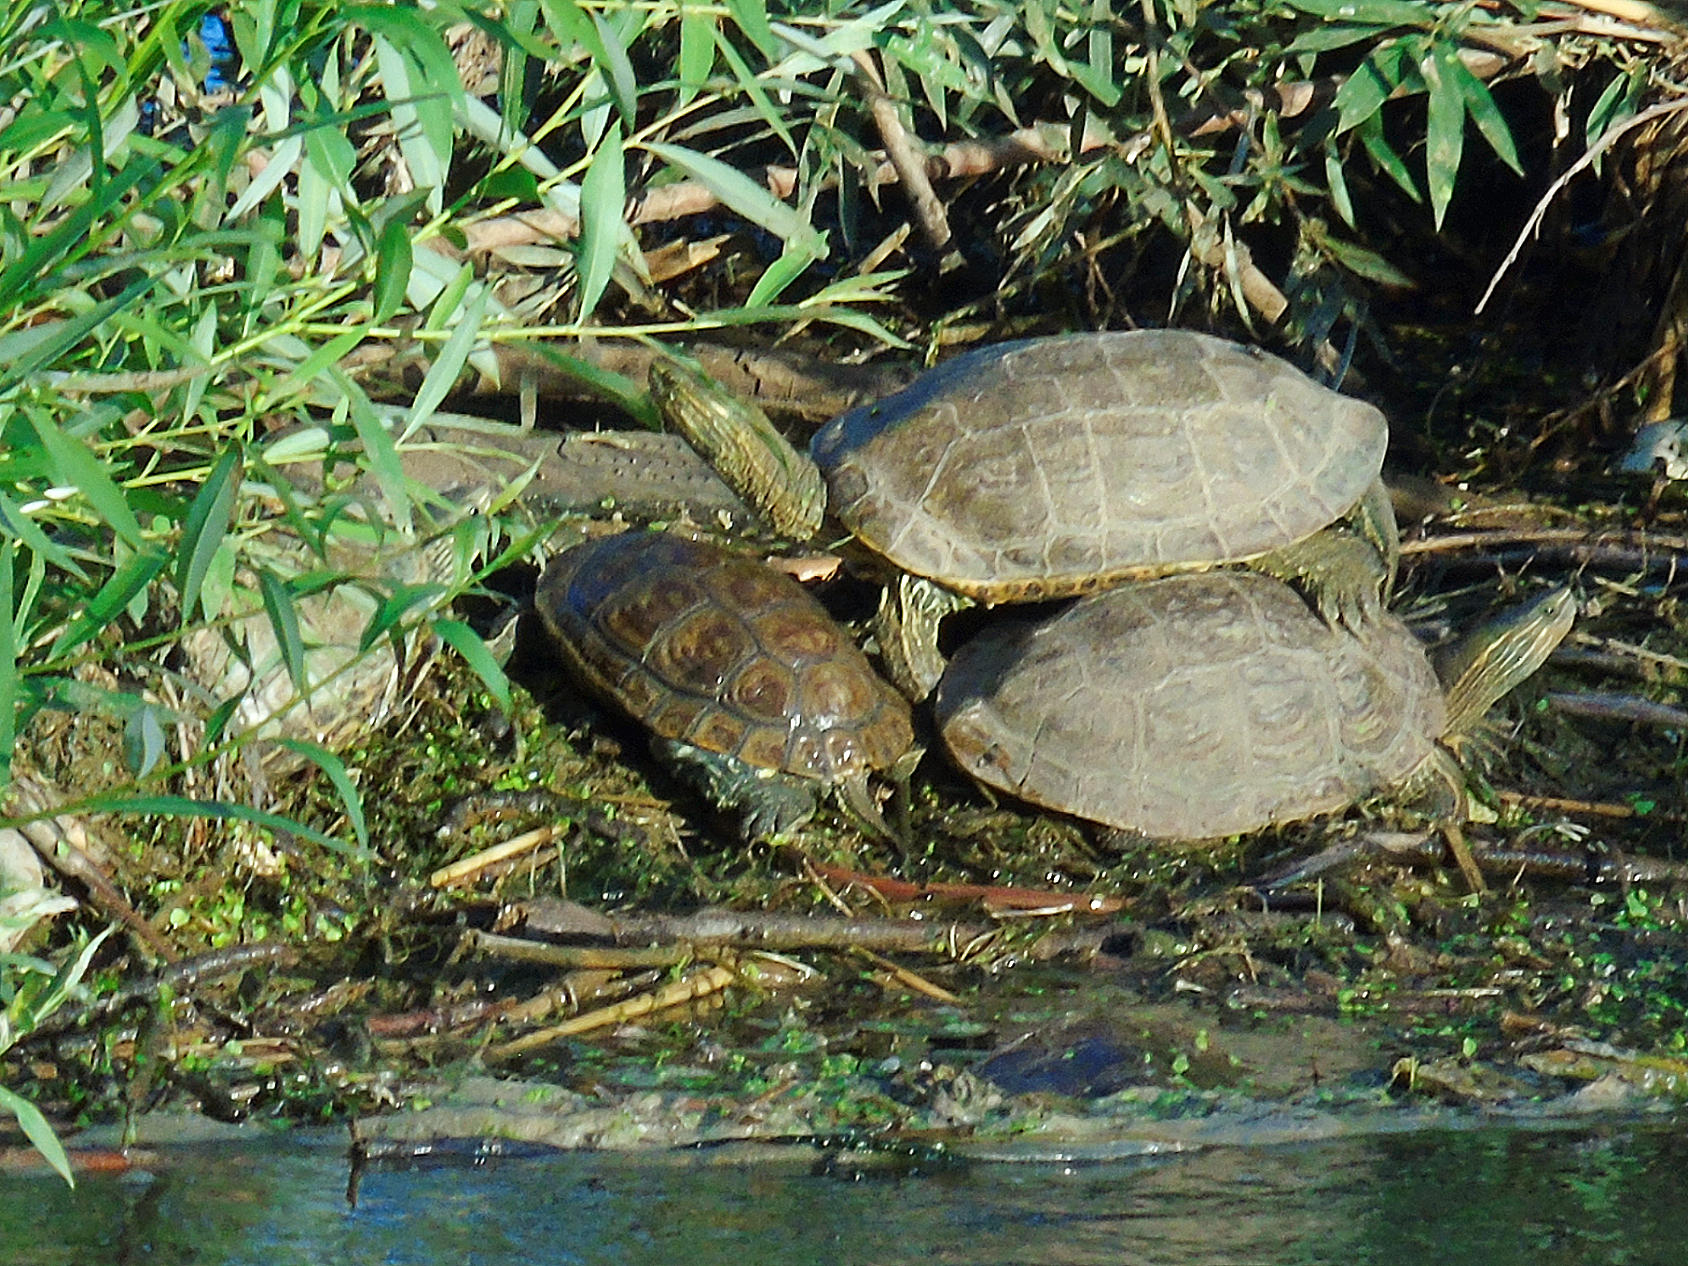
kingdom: Animalia
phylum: Chordata
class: Testudines
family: Geoemydidae
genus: Mauremys
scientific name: Mauremys caspica
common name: Caspian turtle
